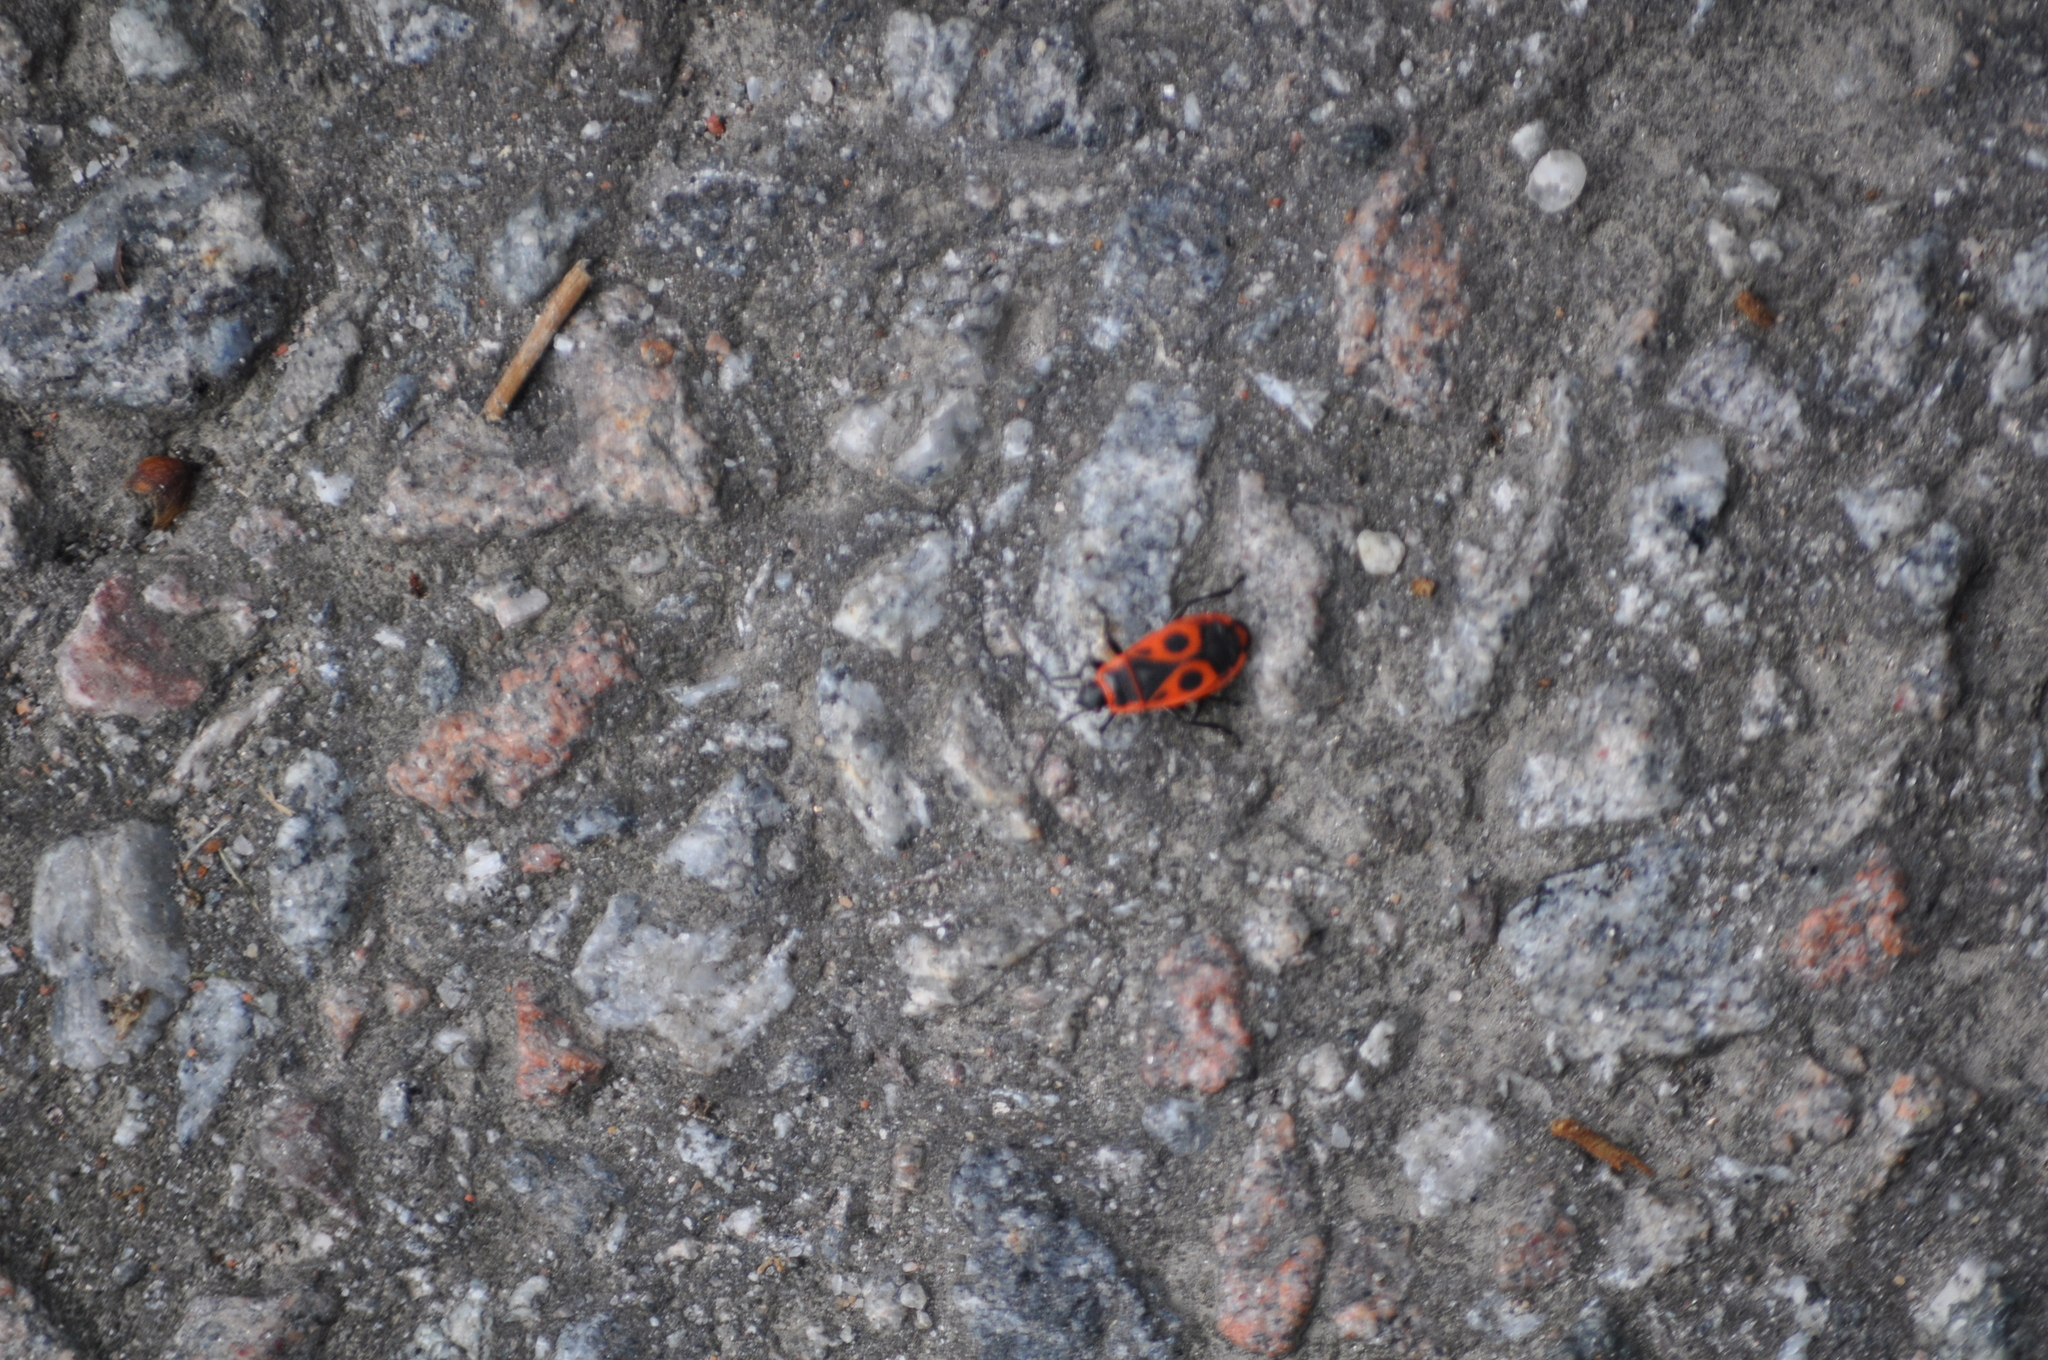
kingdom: Animalia
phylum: Arthropoda
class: Insecta
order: Hemiptera
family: Pyrrhocoridae
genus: Pyrrhocoris
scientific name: Pyrrhocoris apterus
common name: Firebug
